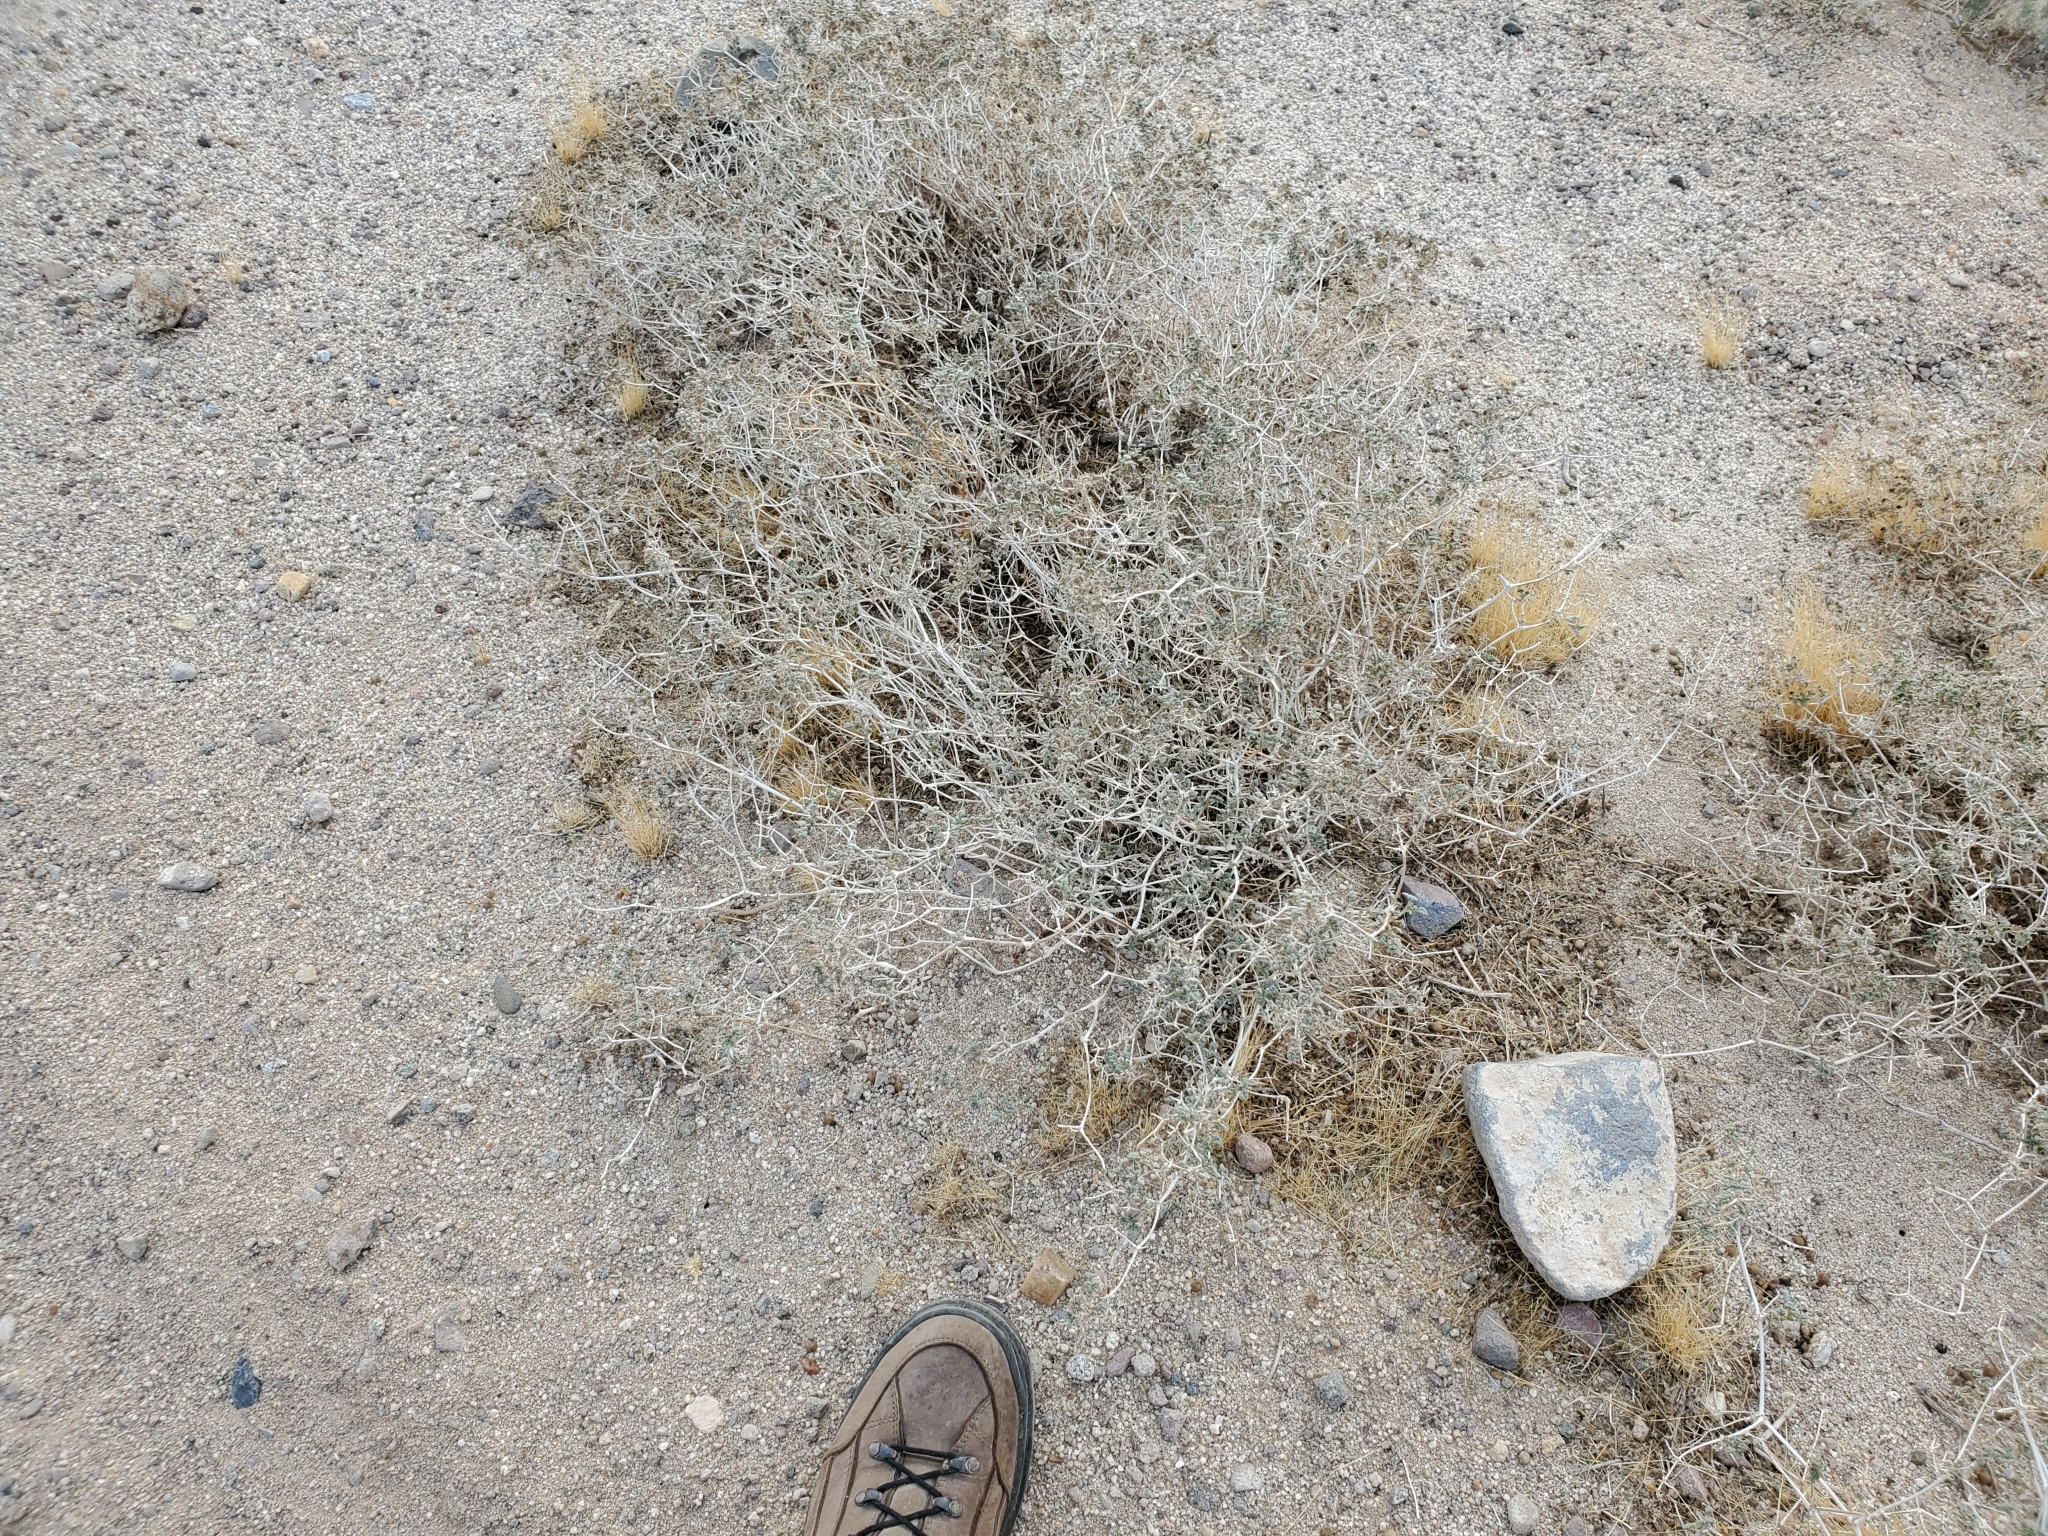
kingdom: Plantae
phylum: Tracheophyta
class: Magnoliopsida
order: Boraginales
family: Ehretiaceae
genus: Tiquilia
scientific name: Tiquilia palmeri
